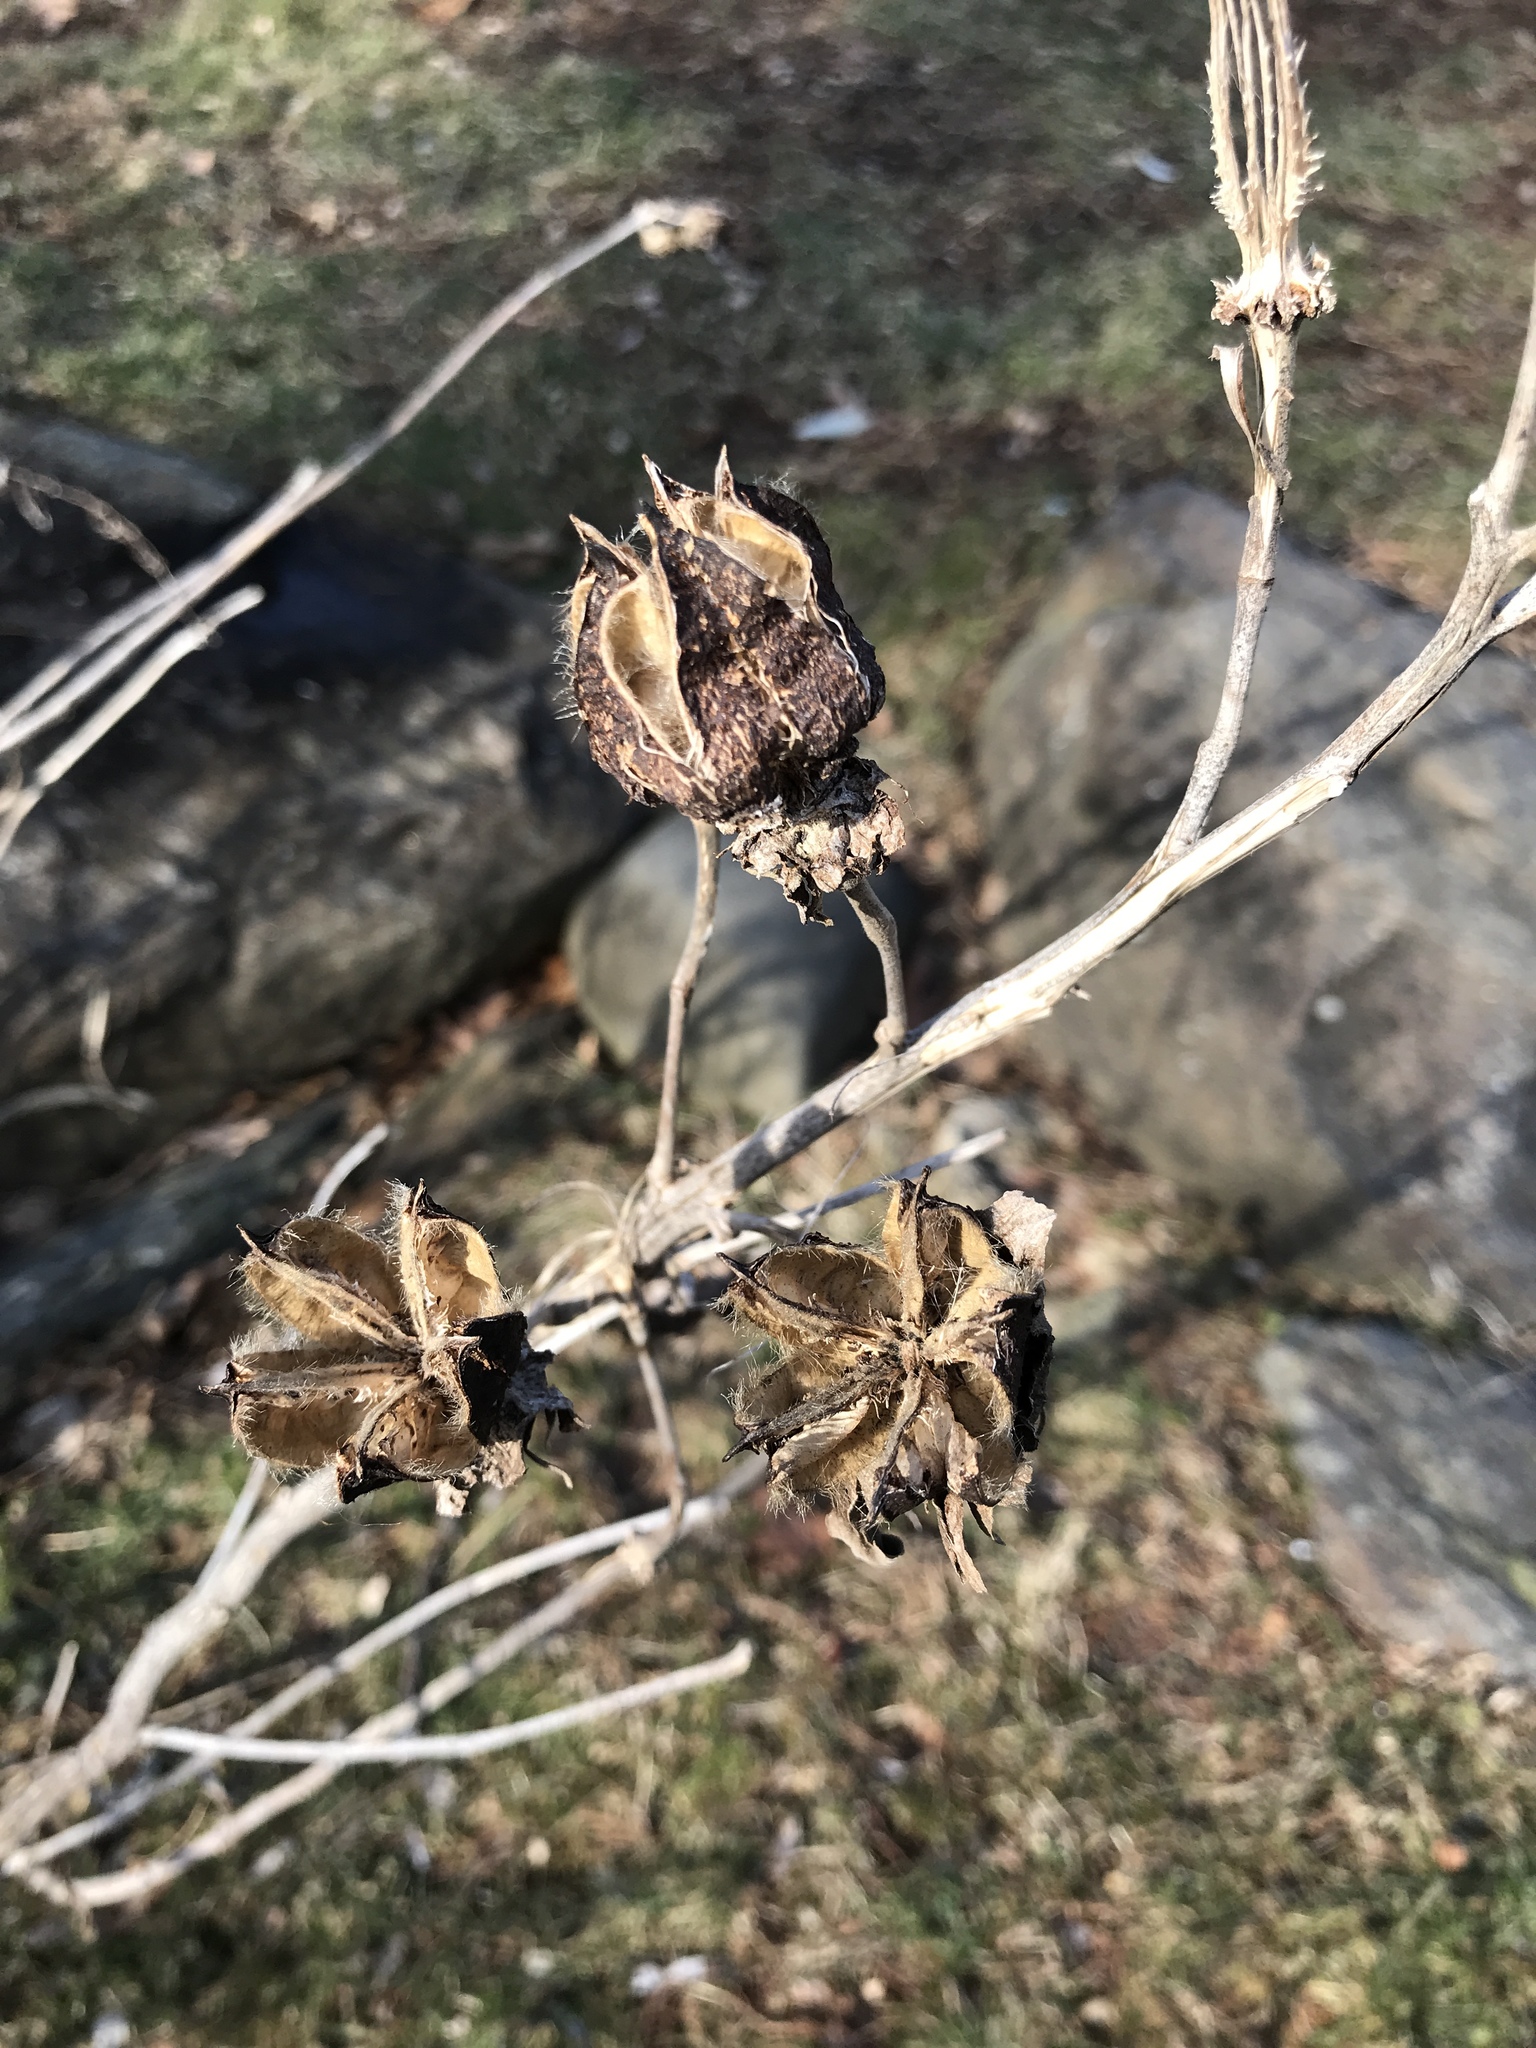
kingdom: Plantae
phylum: Tracheophyta
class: Magnoliopsida
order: Malvales
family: Malvaceae
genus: Hibiscus
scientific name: Hibiscus moscheutos
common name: Common rose-mallow
